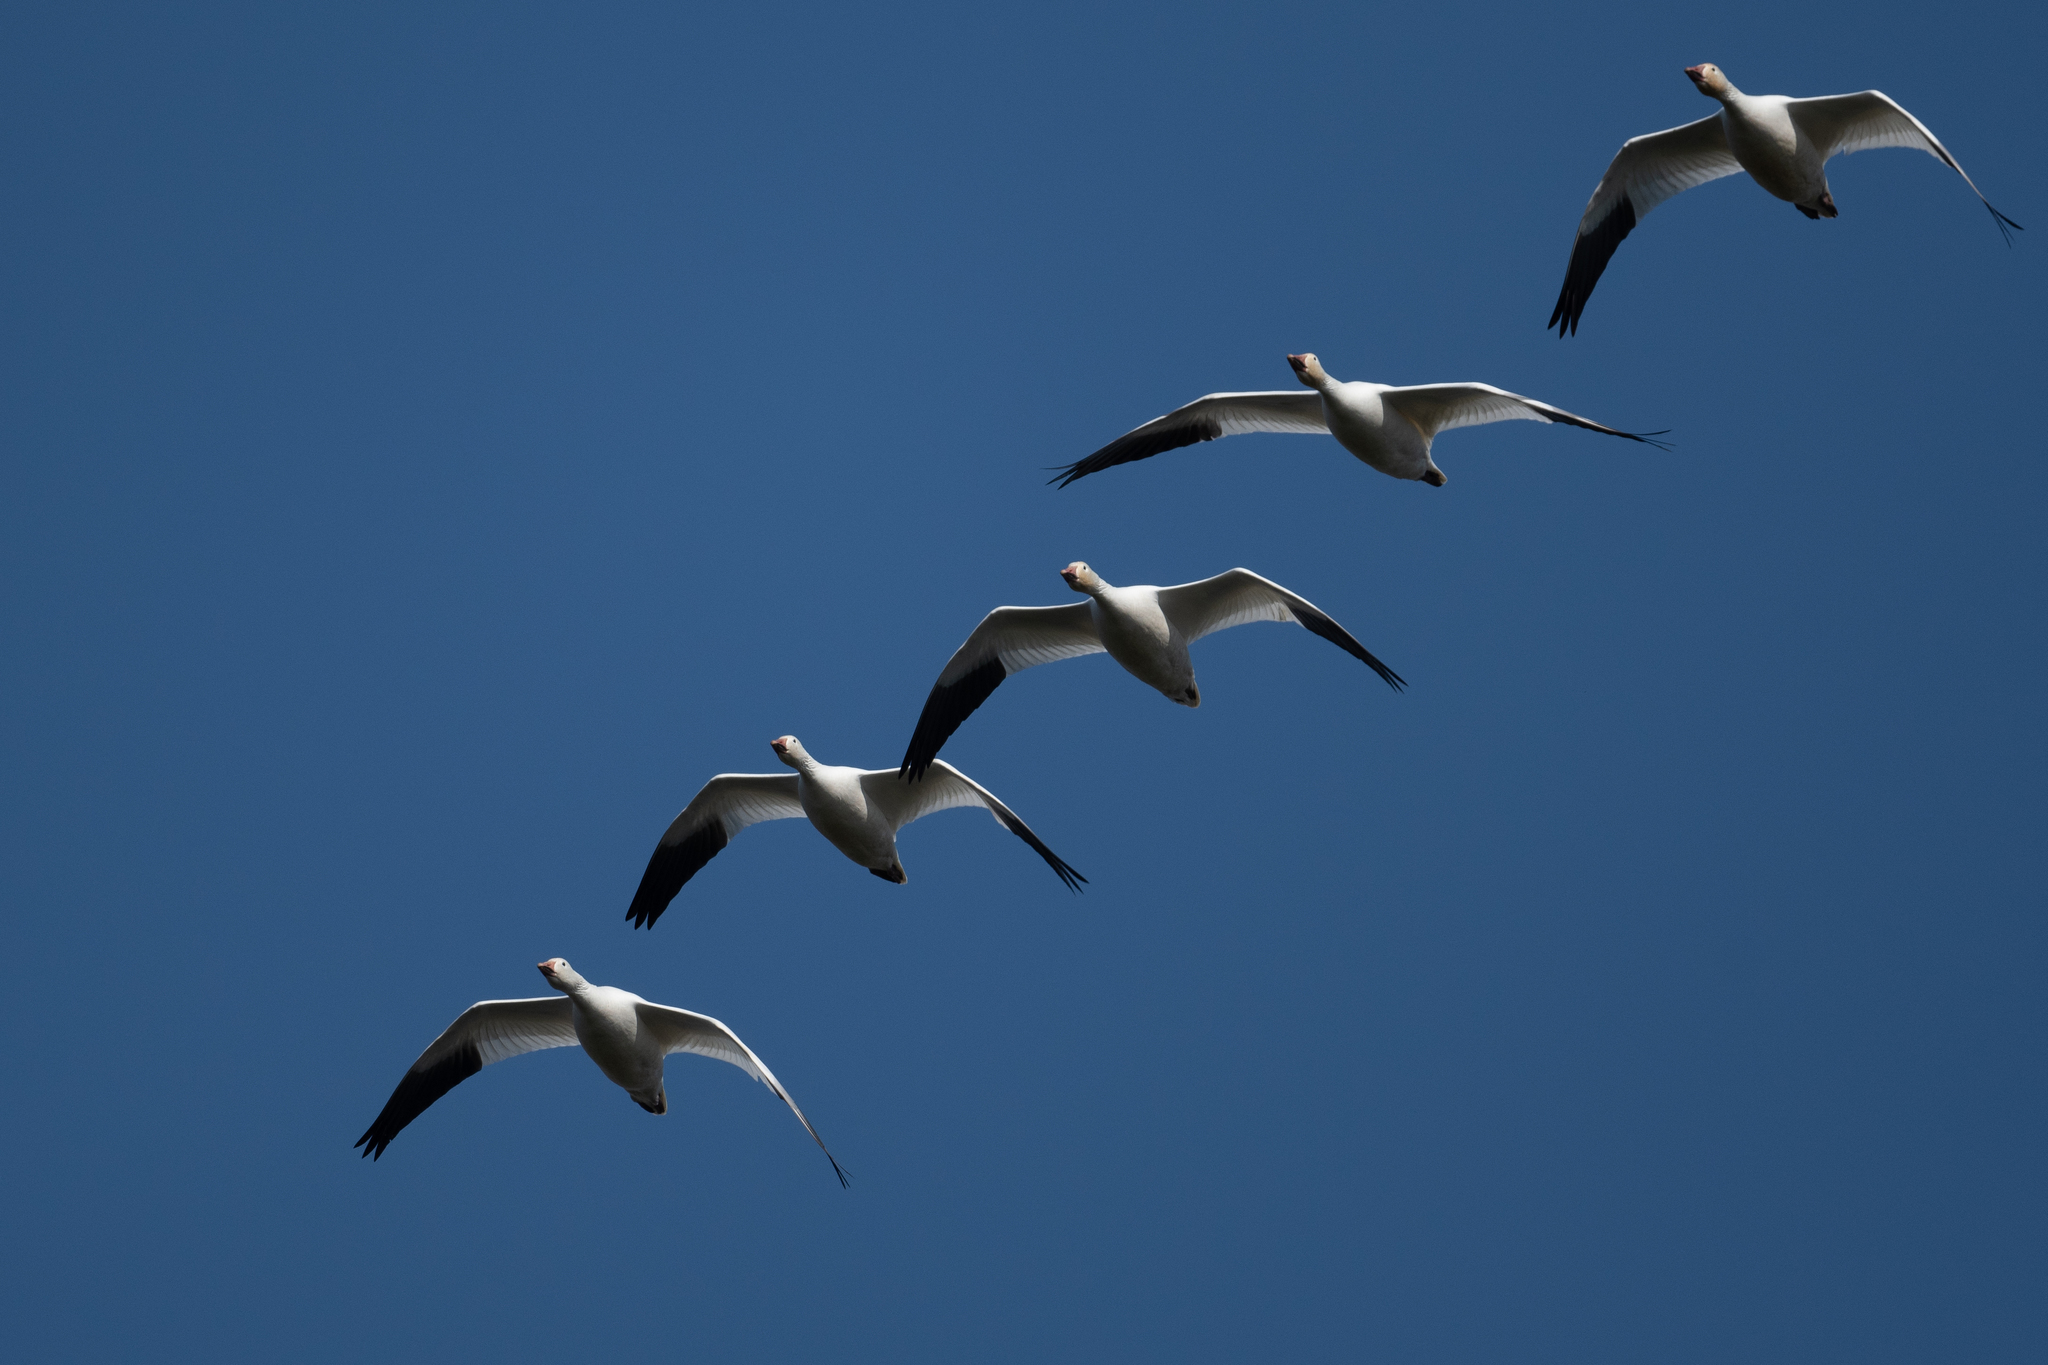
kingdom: Animalia
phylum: Chordata
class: Aves
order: Anseriformes
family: Anatidae
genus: Anser
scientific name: Anser caerulescens
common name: Snow goose
